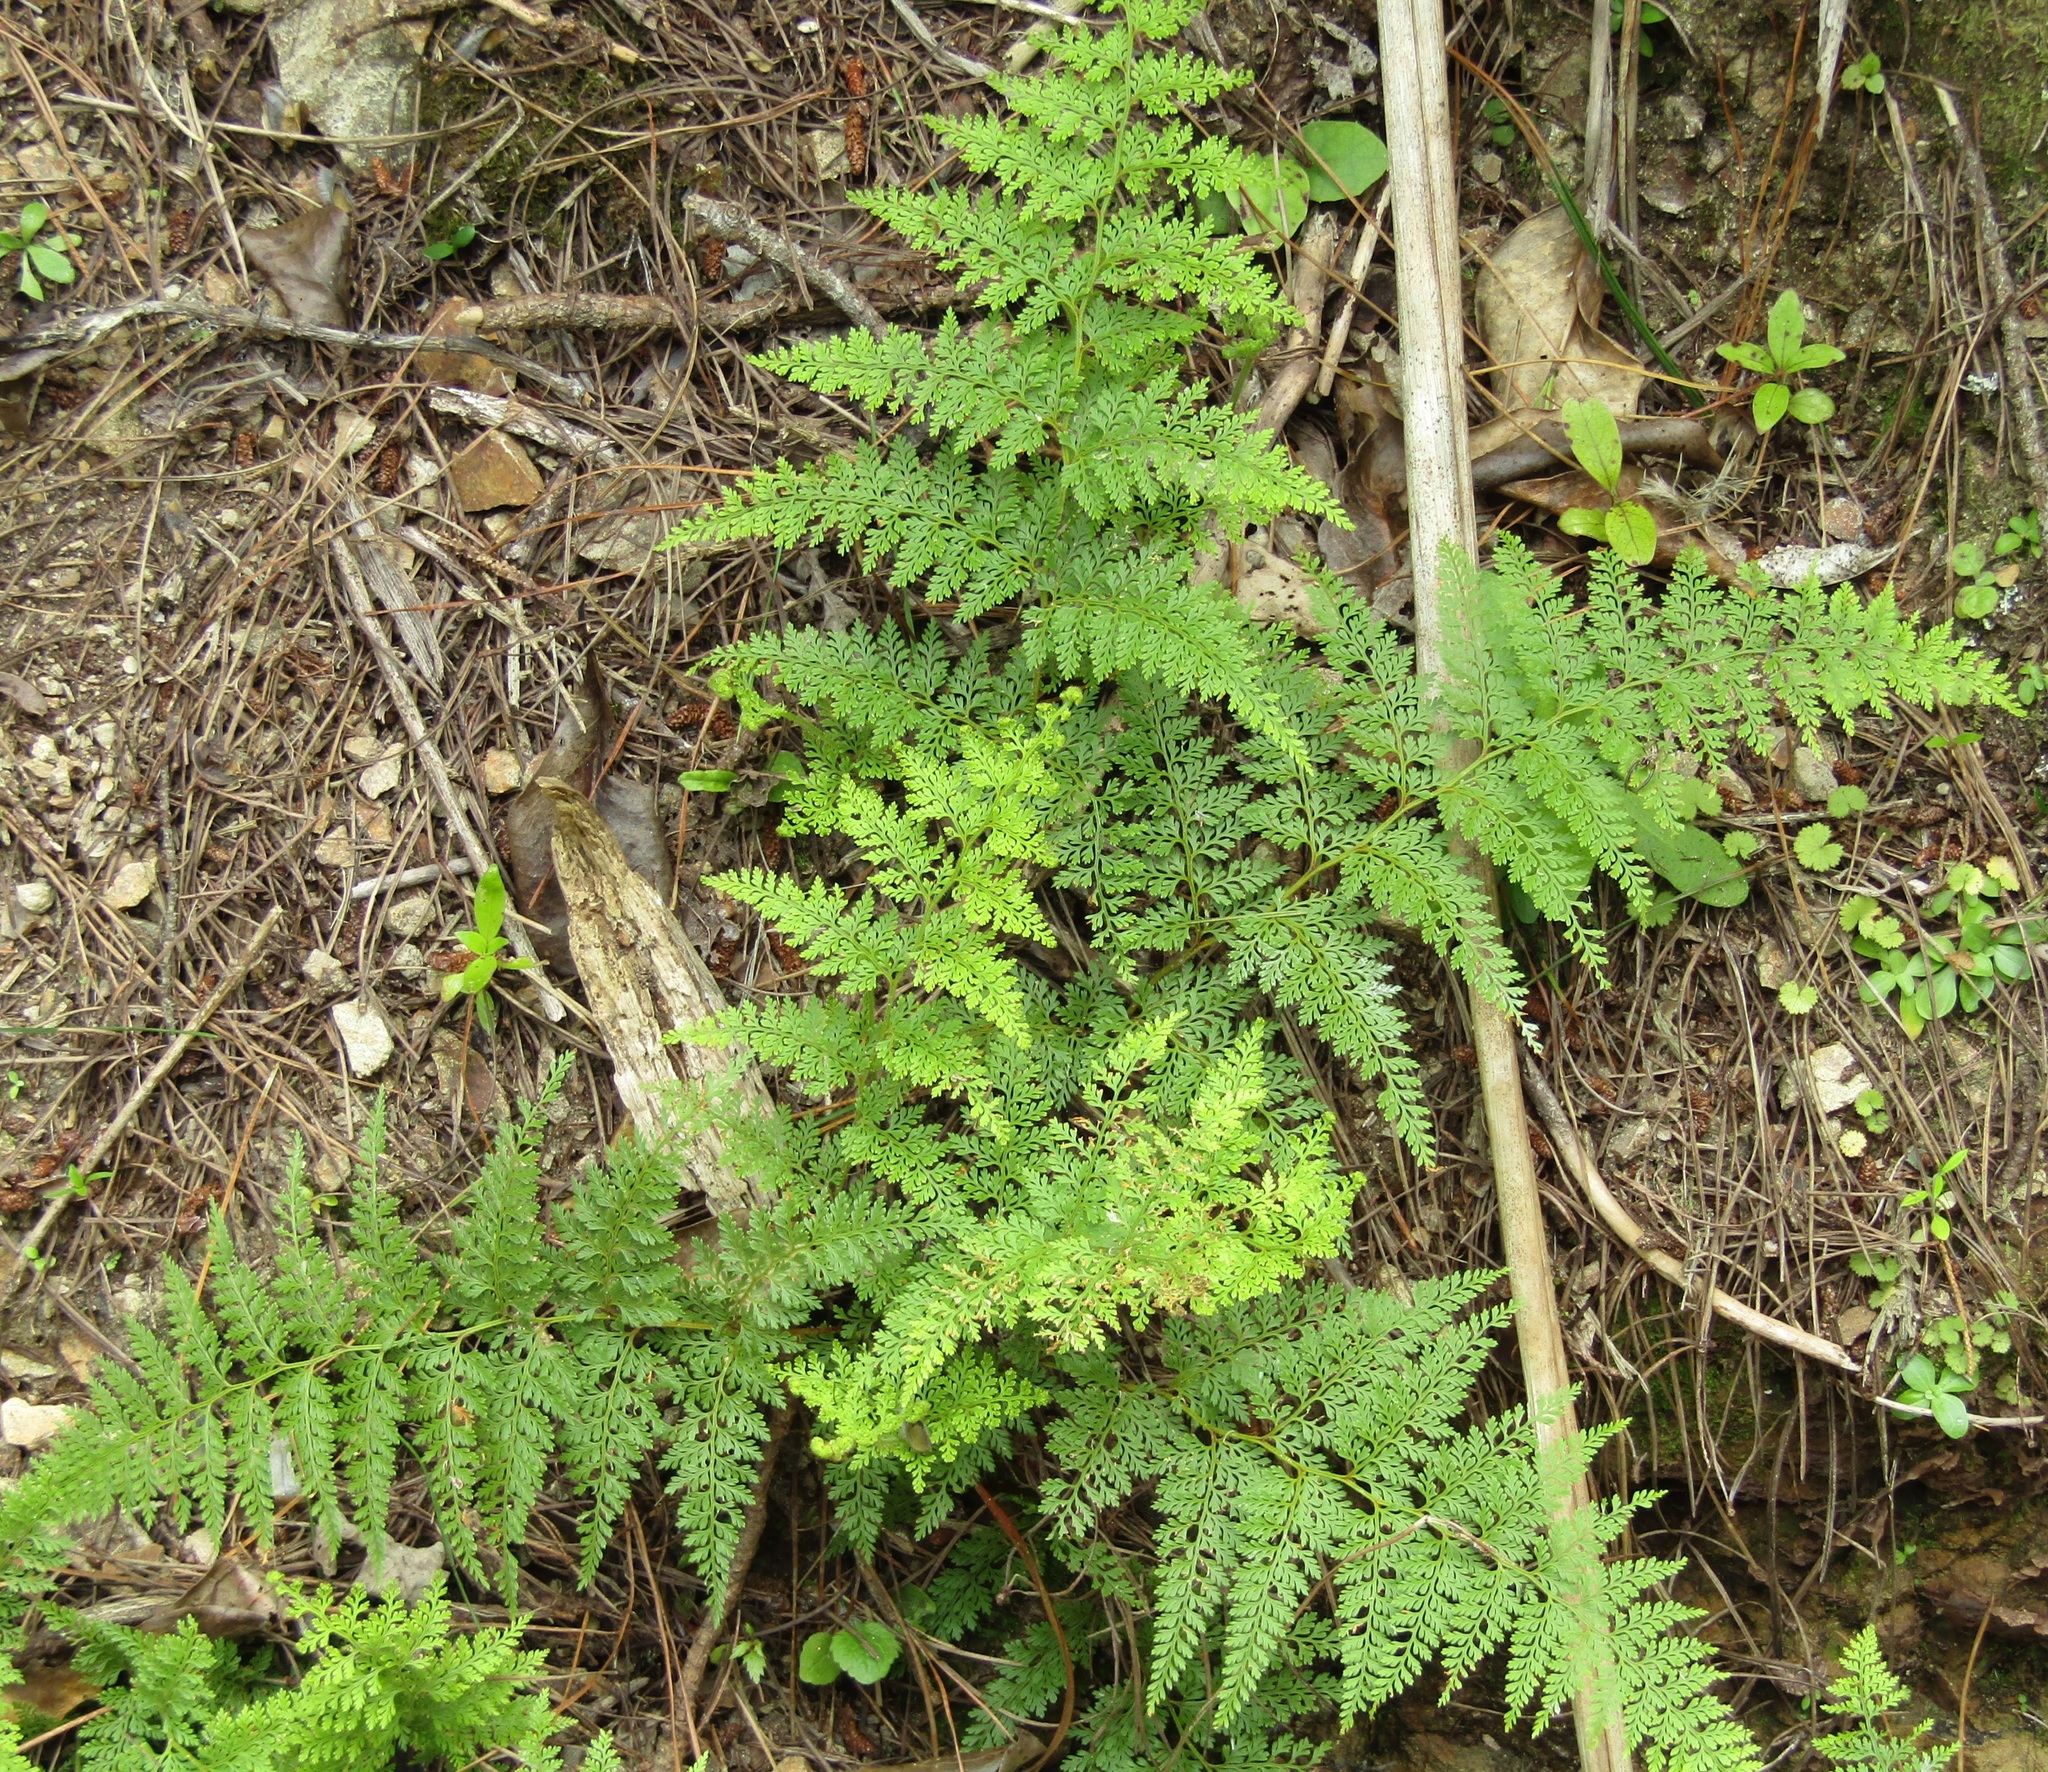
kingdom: Plantae
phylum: Tracheophyta
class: Polypodiopsida
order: Polypodiales
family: Dennstaedtiaceae
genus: Paesia
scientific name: Paesia scaberula
